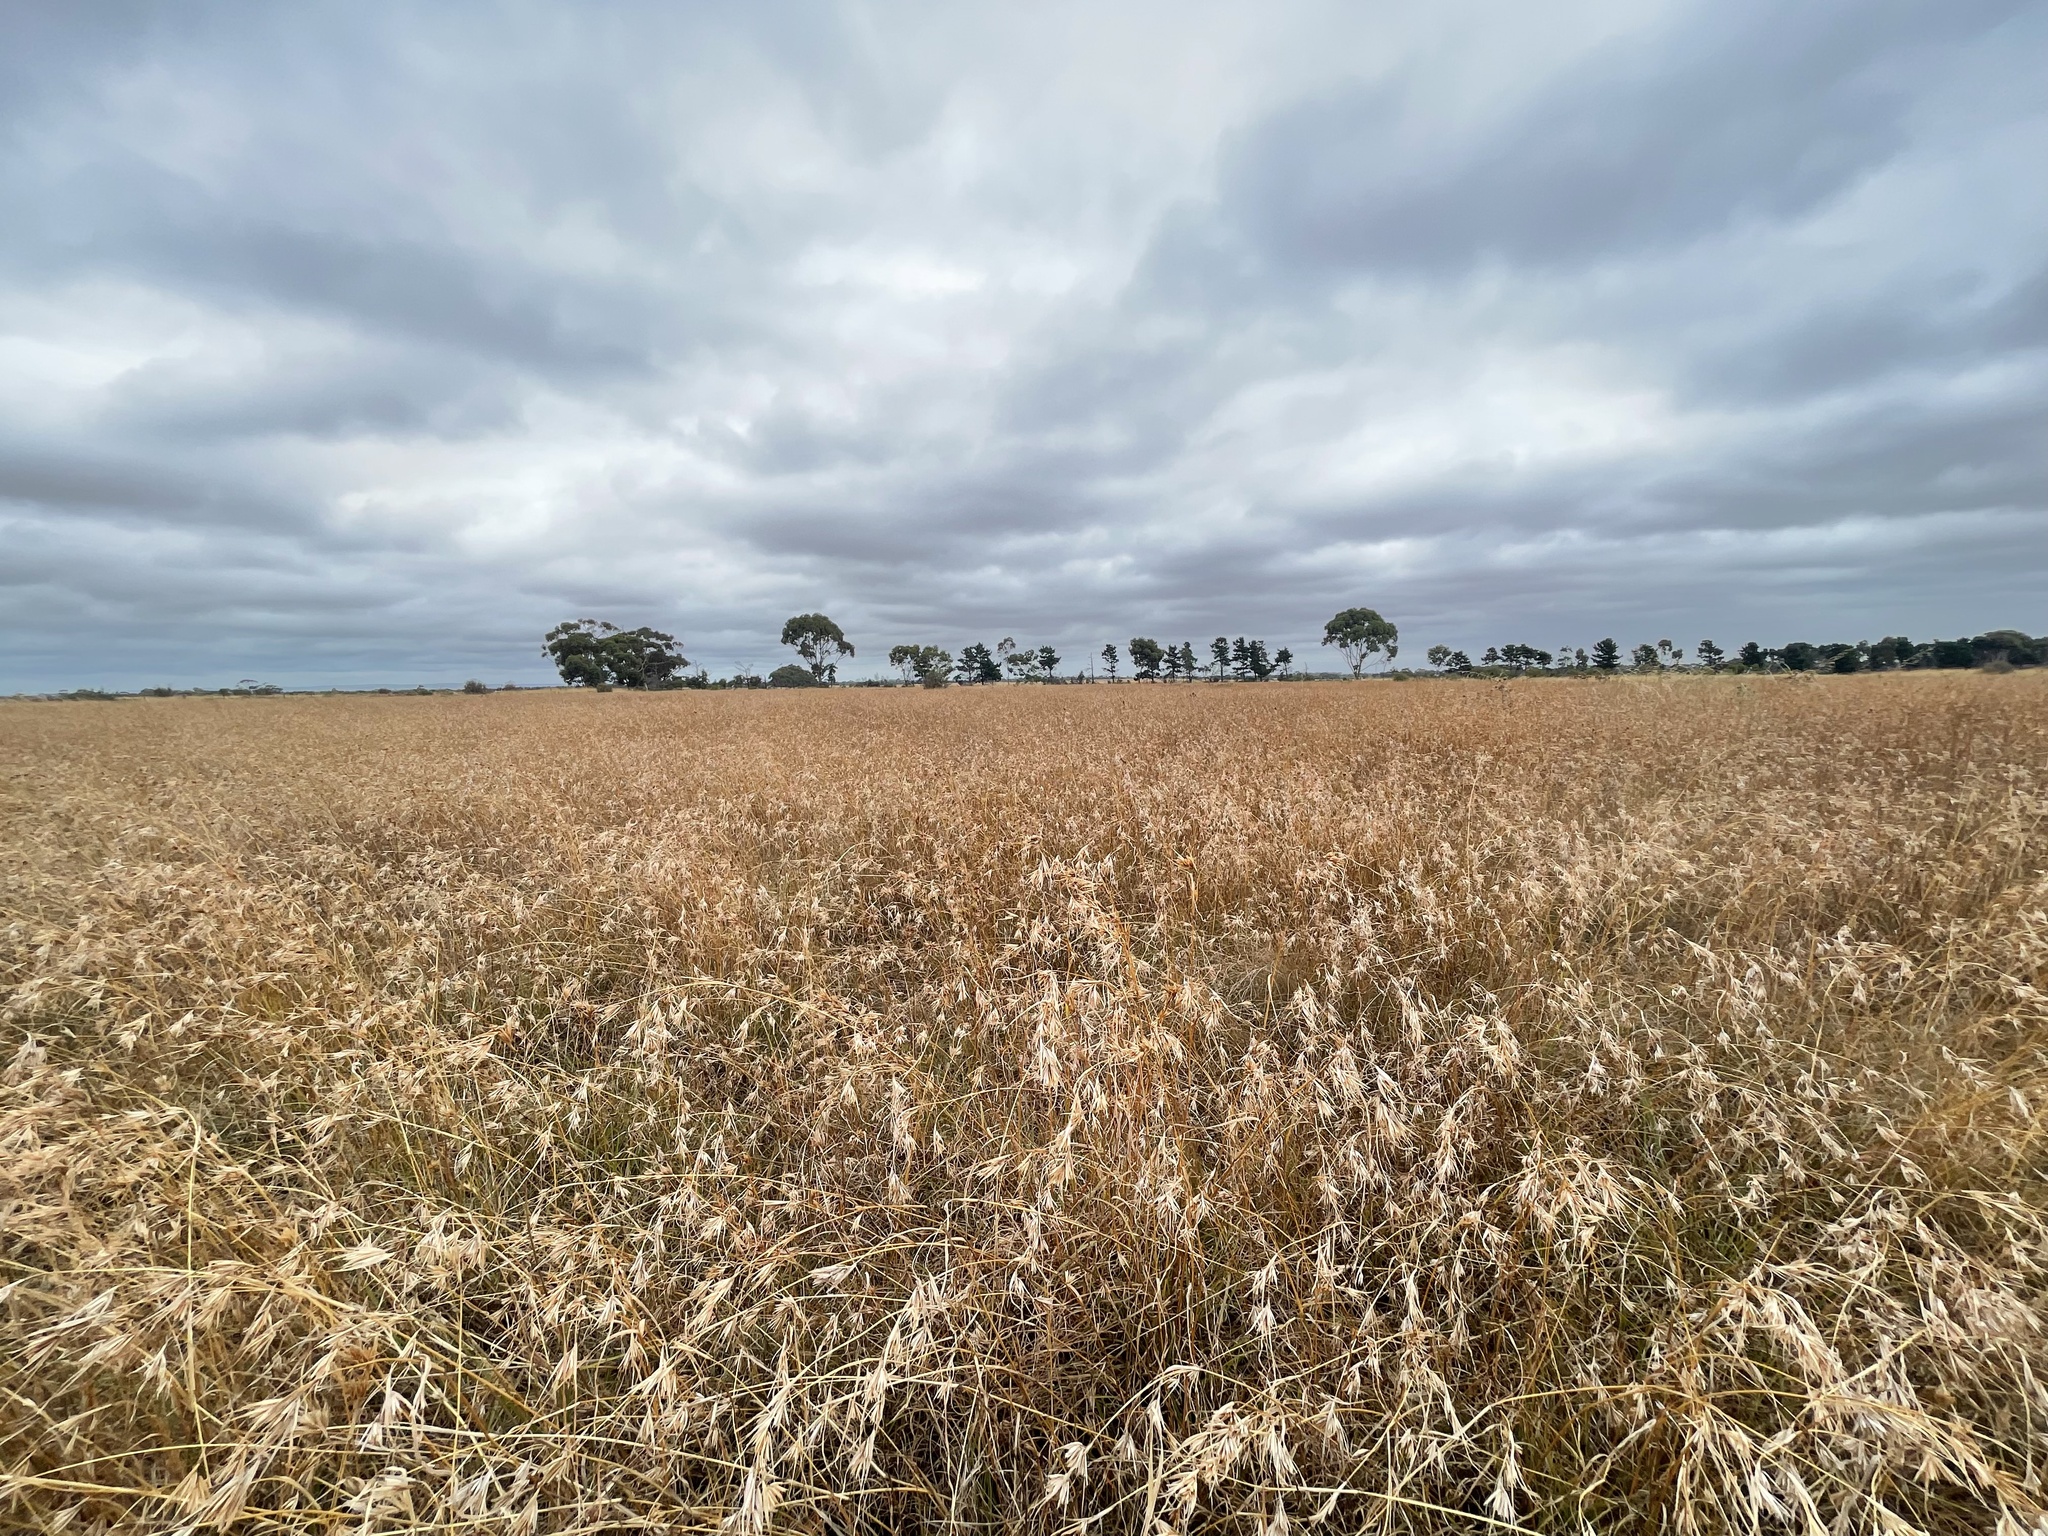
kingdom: Plantae
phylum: Tracheophyta
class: Liliopsida
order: Poales
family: Poaceae
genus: Themeda
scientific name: Themeda triandra
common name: Kangaroo grass
